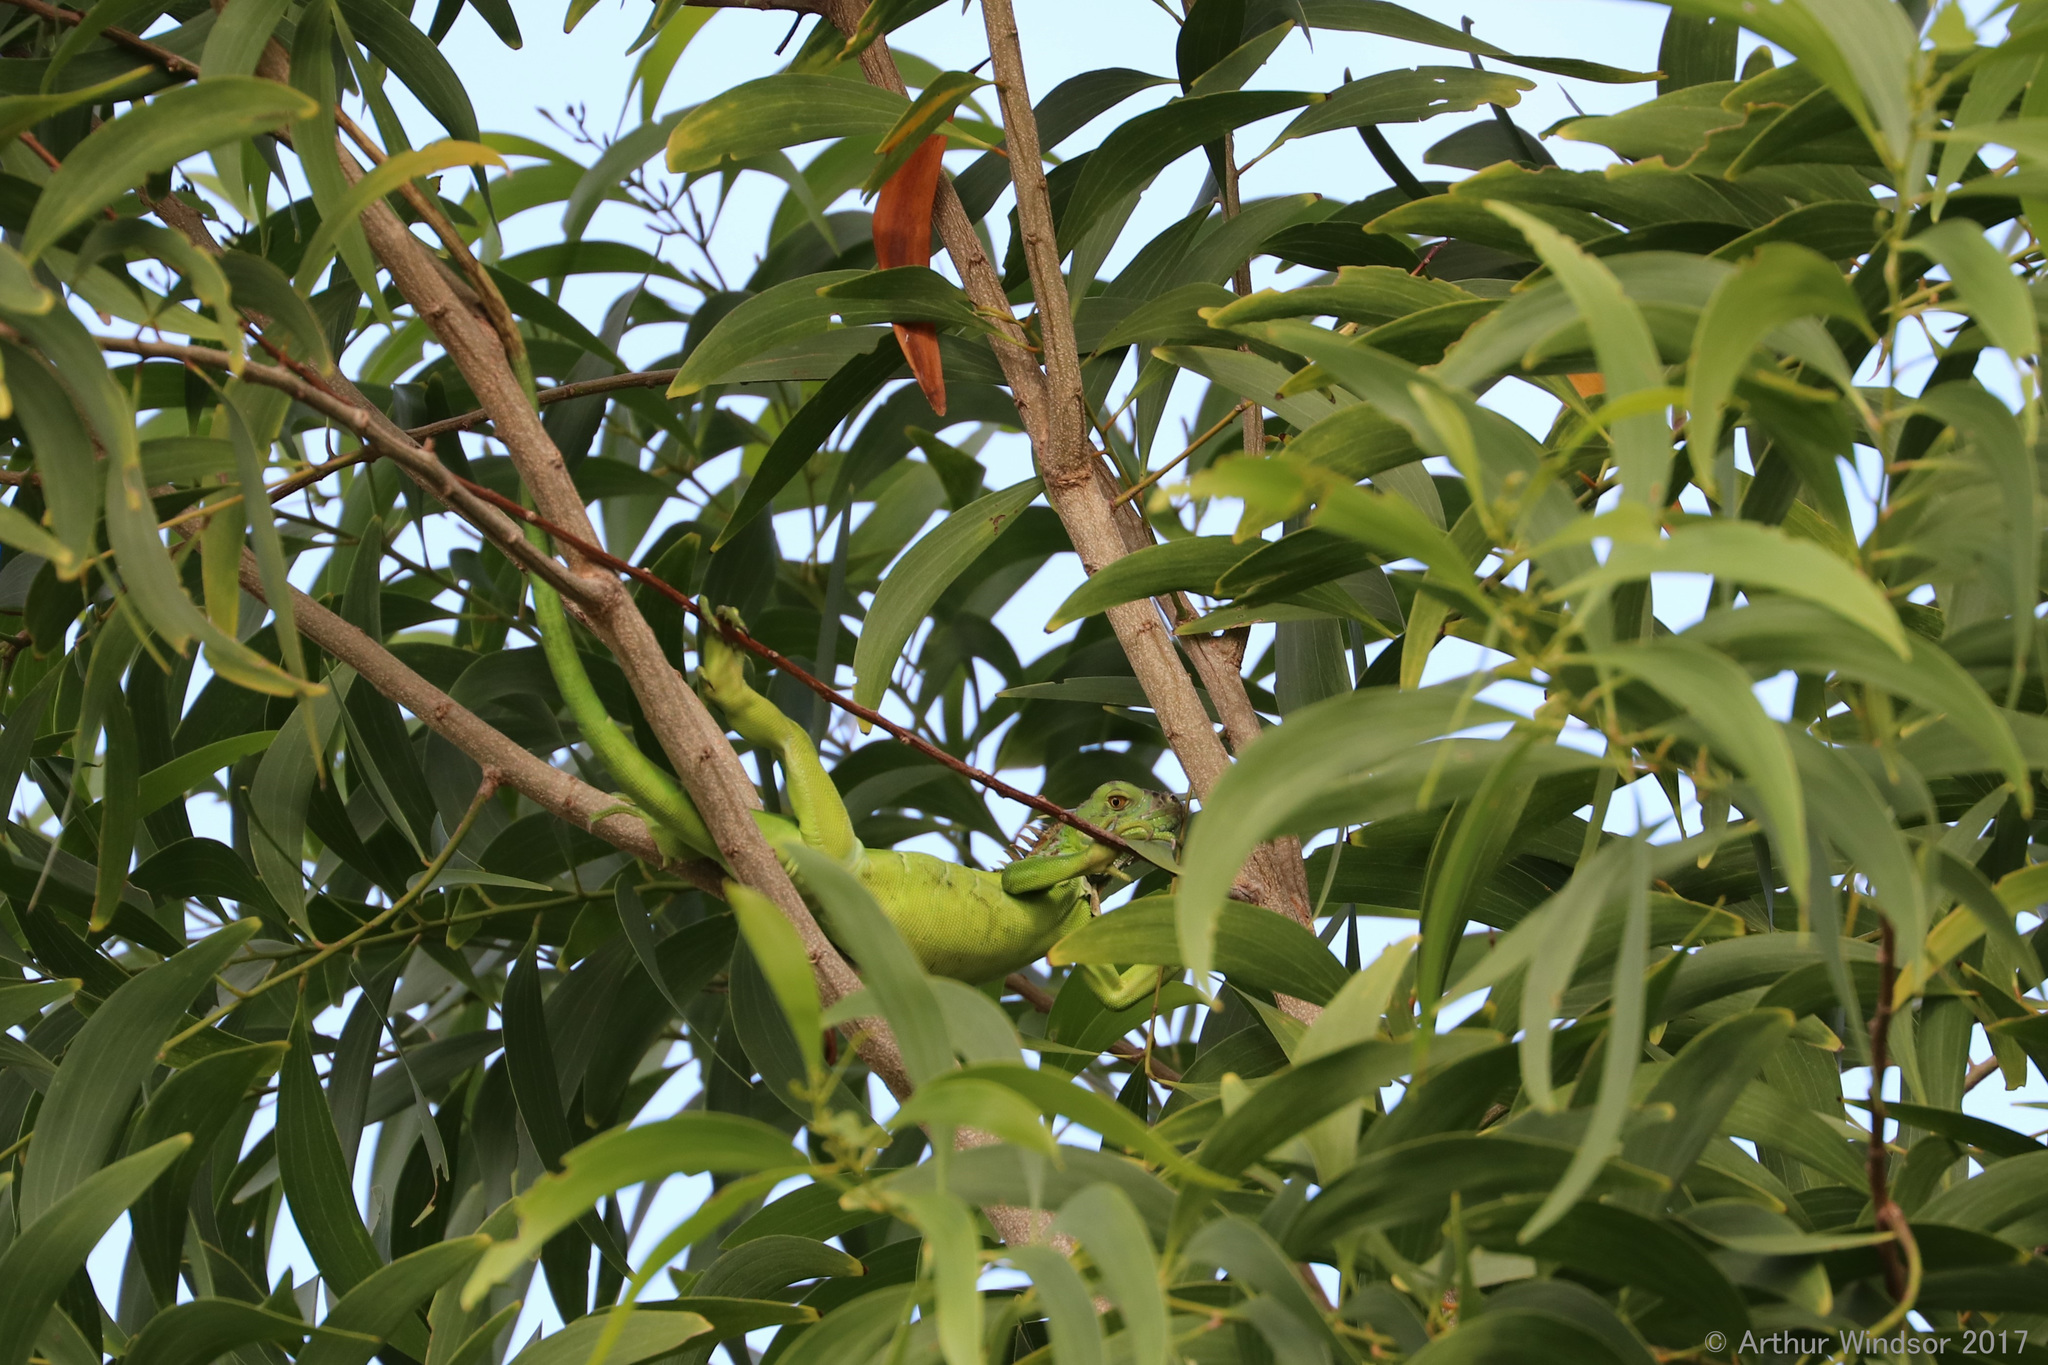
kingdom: Animalia
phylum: Chordata
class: Squamata
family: Iguanidae
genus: Iguana
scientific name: Iguana iguana
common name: Green iguana
